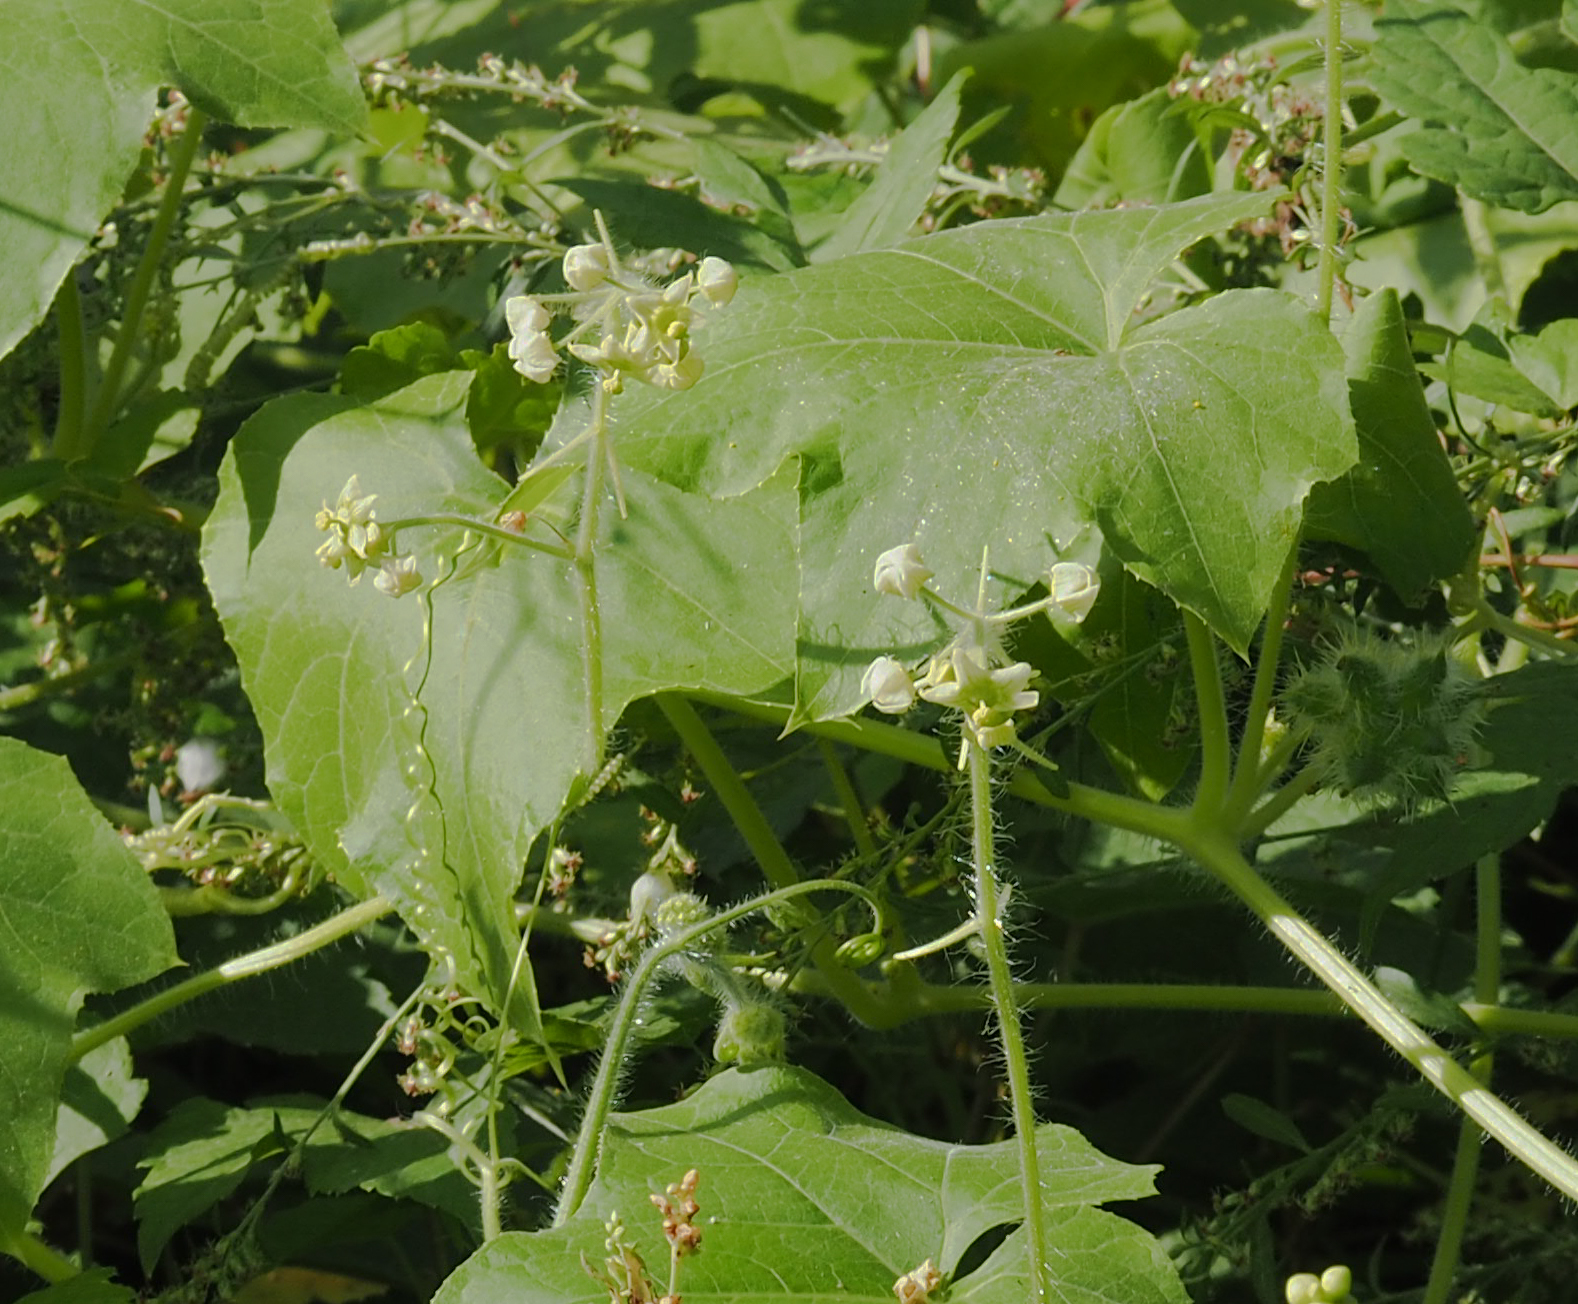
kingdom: Plantae
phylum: Tracheophyta
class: Magnoliopsida
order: Cucurbitales
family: Cucurbitaceae
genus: Sicyos
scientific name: Sicyos angulatus
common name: Angled burr cucumber
